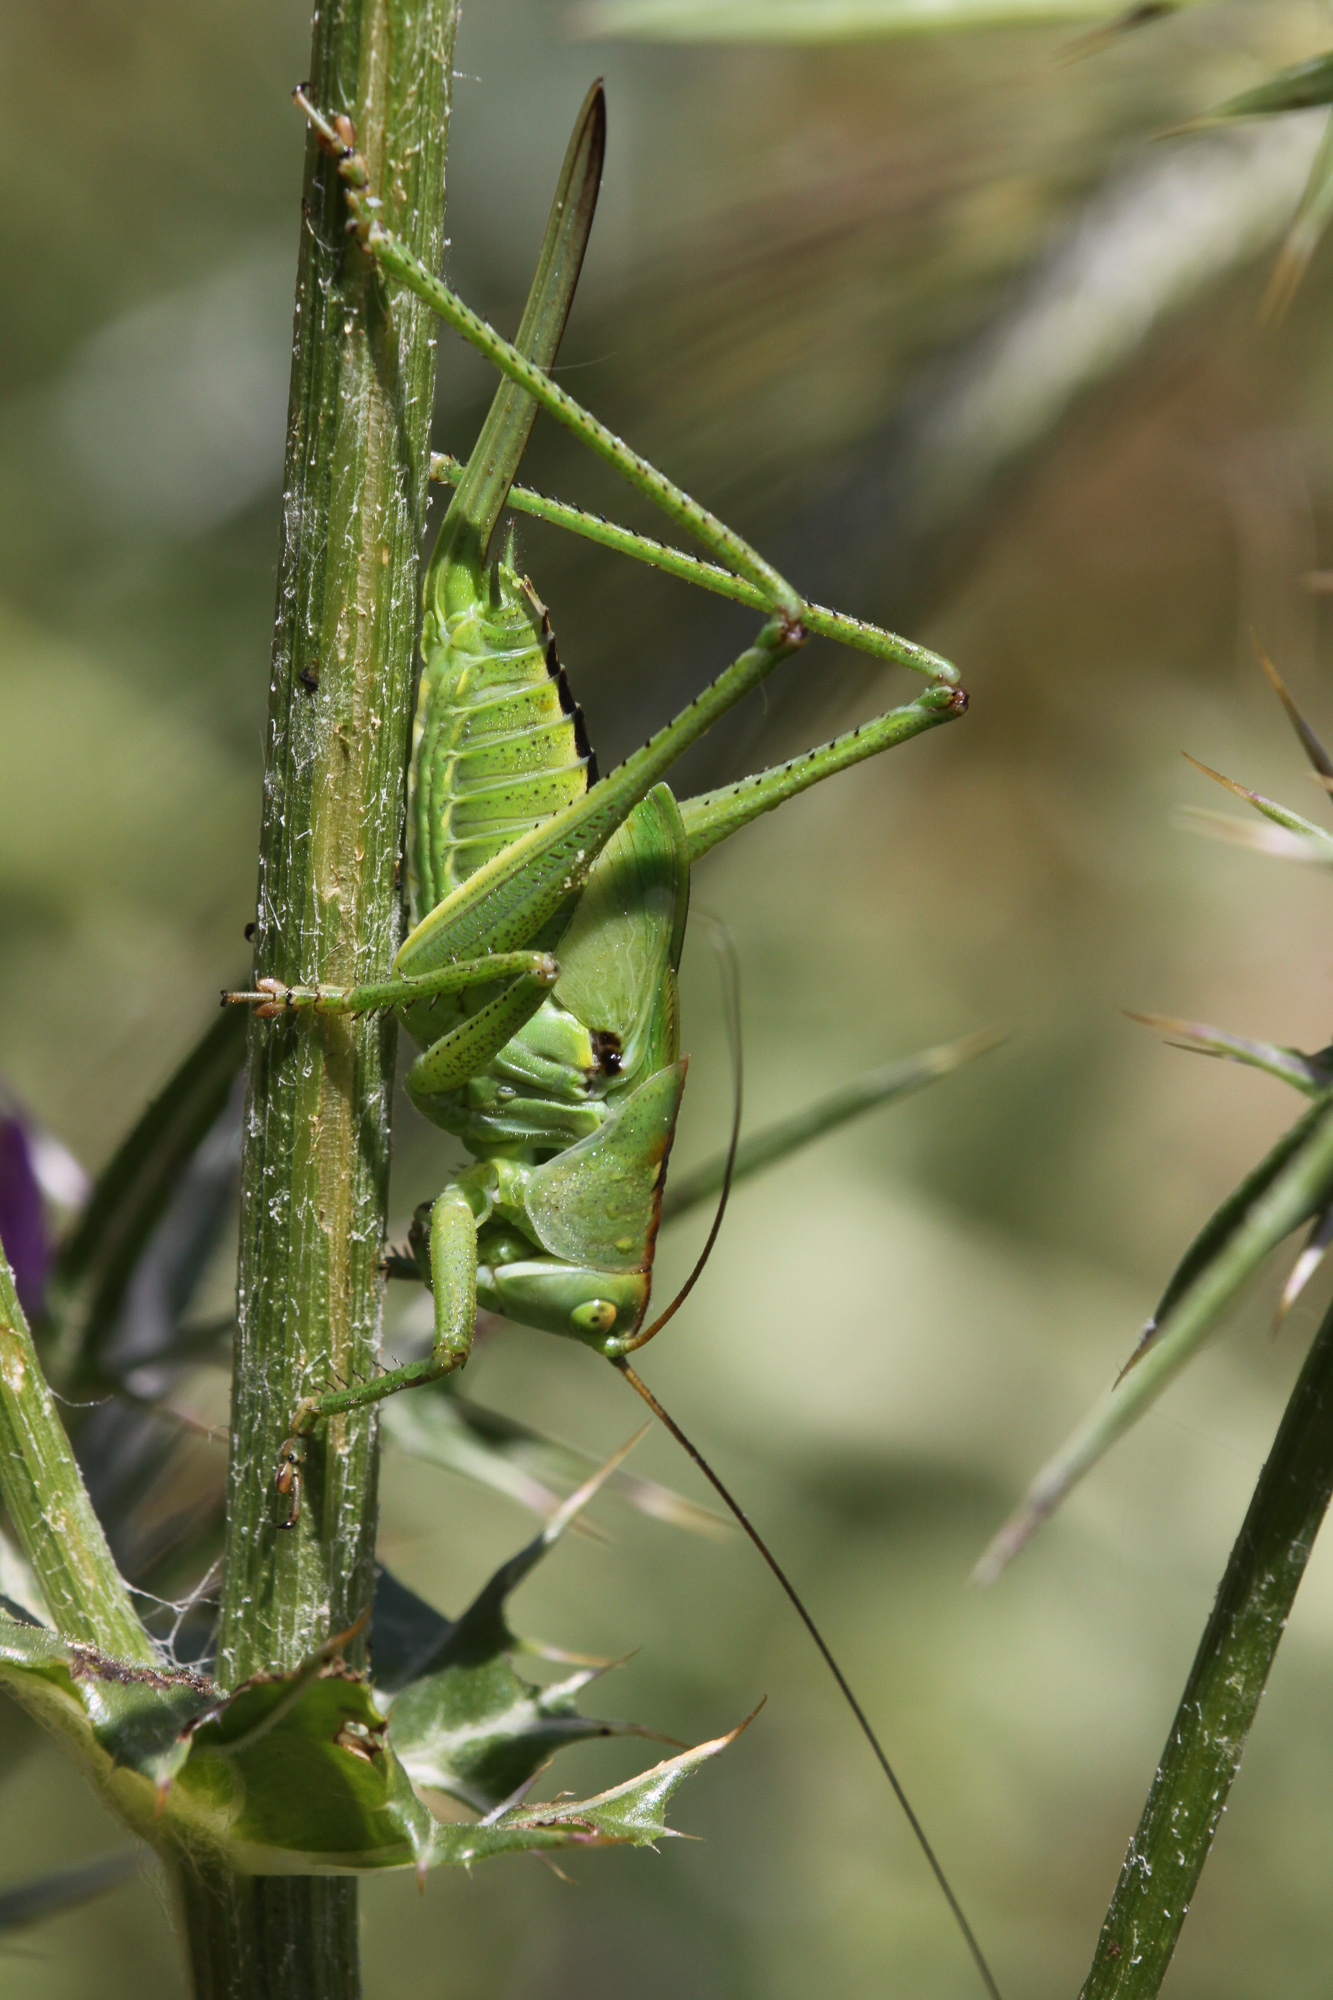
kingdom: Animalia
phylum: Arthropoda
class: Insecta
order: Orthoptera
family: Tettigoniidae
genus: Tettigonia
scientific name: Tettigonia viridissima
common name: Great green bush-cricket
